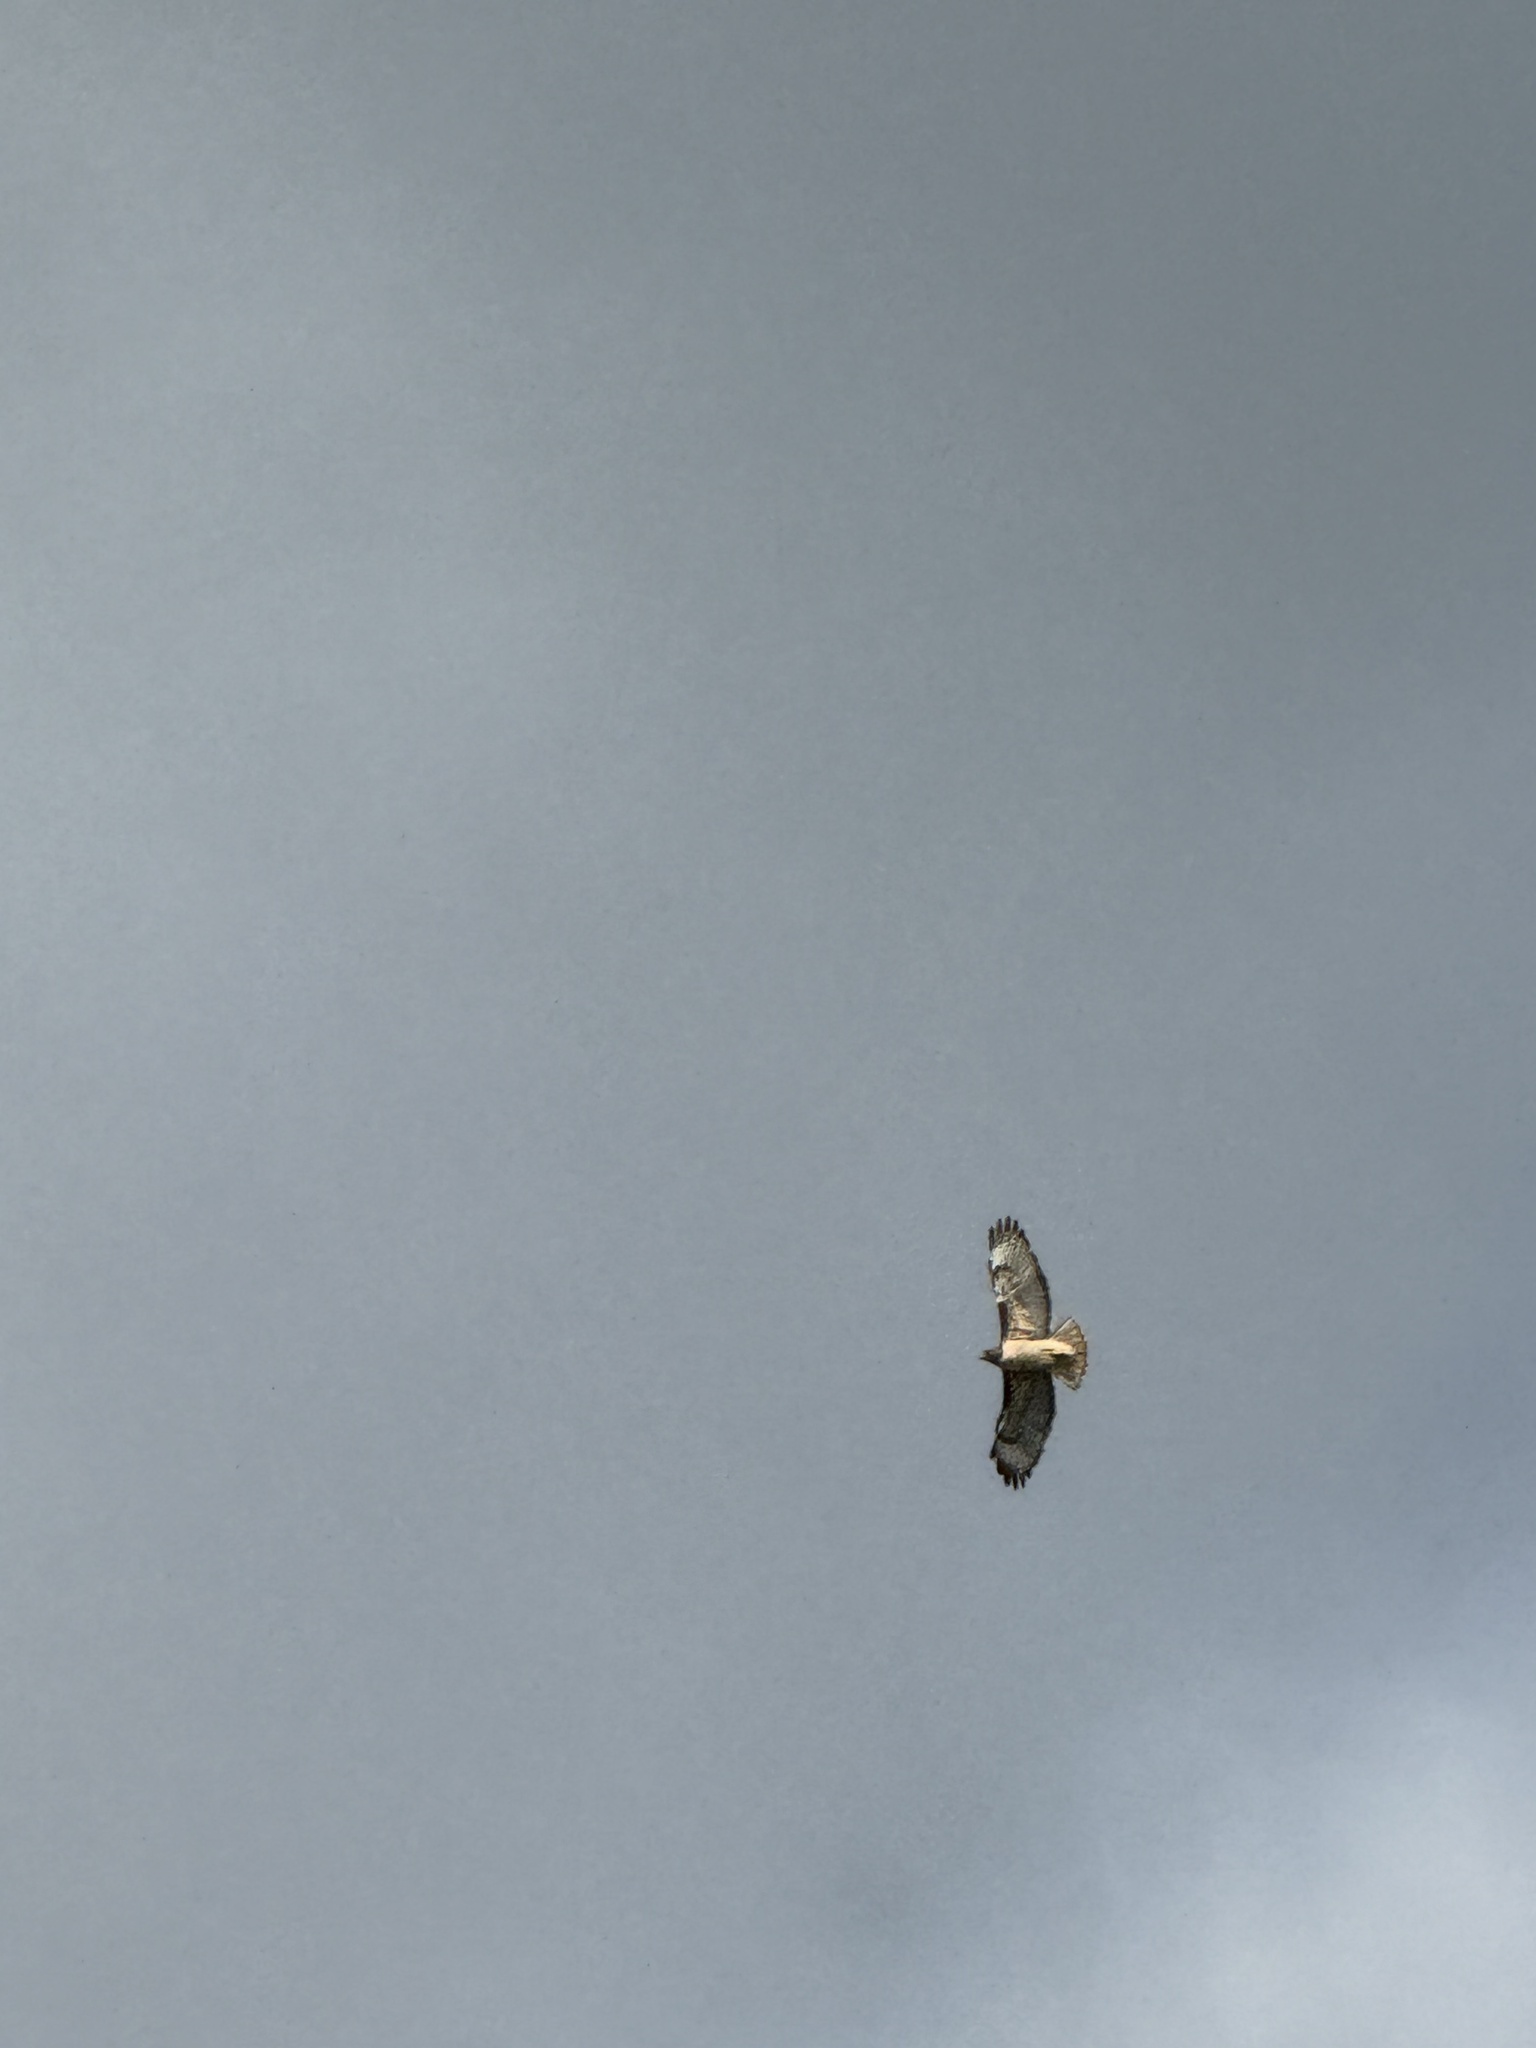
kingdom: Animalia
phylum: Chordata
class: Aves
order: Accipitriformes
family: Accipitridae
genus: Buteo
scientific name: Buteo jamaicensis
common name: Red-tailed hawk
